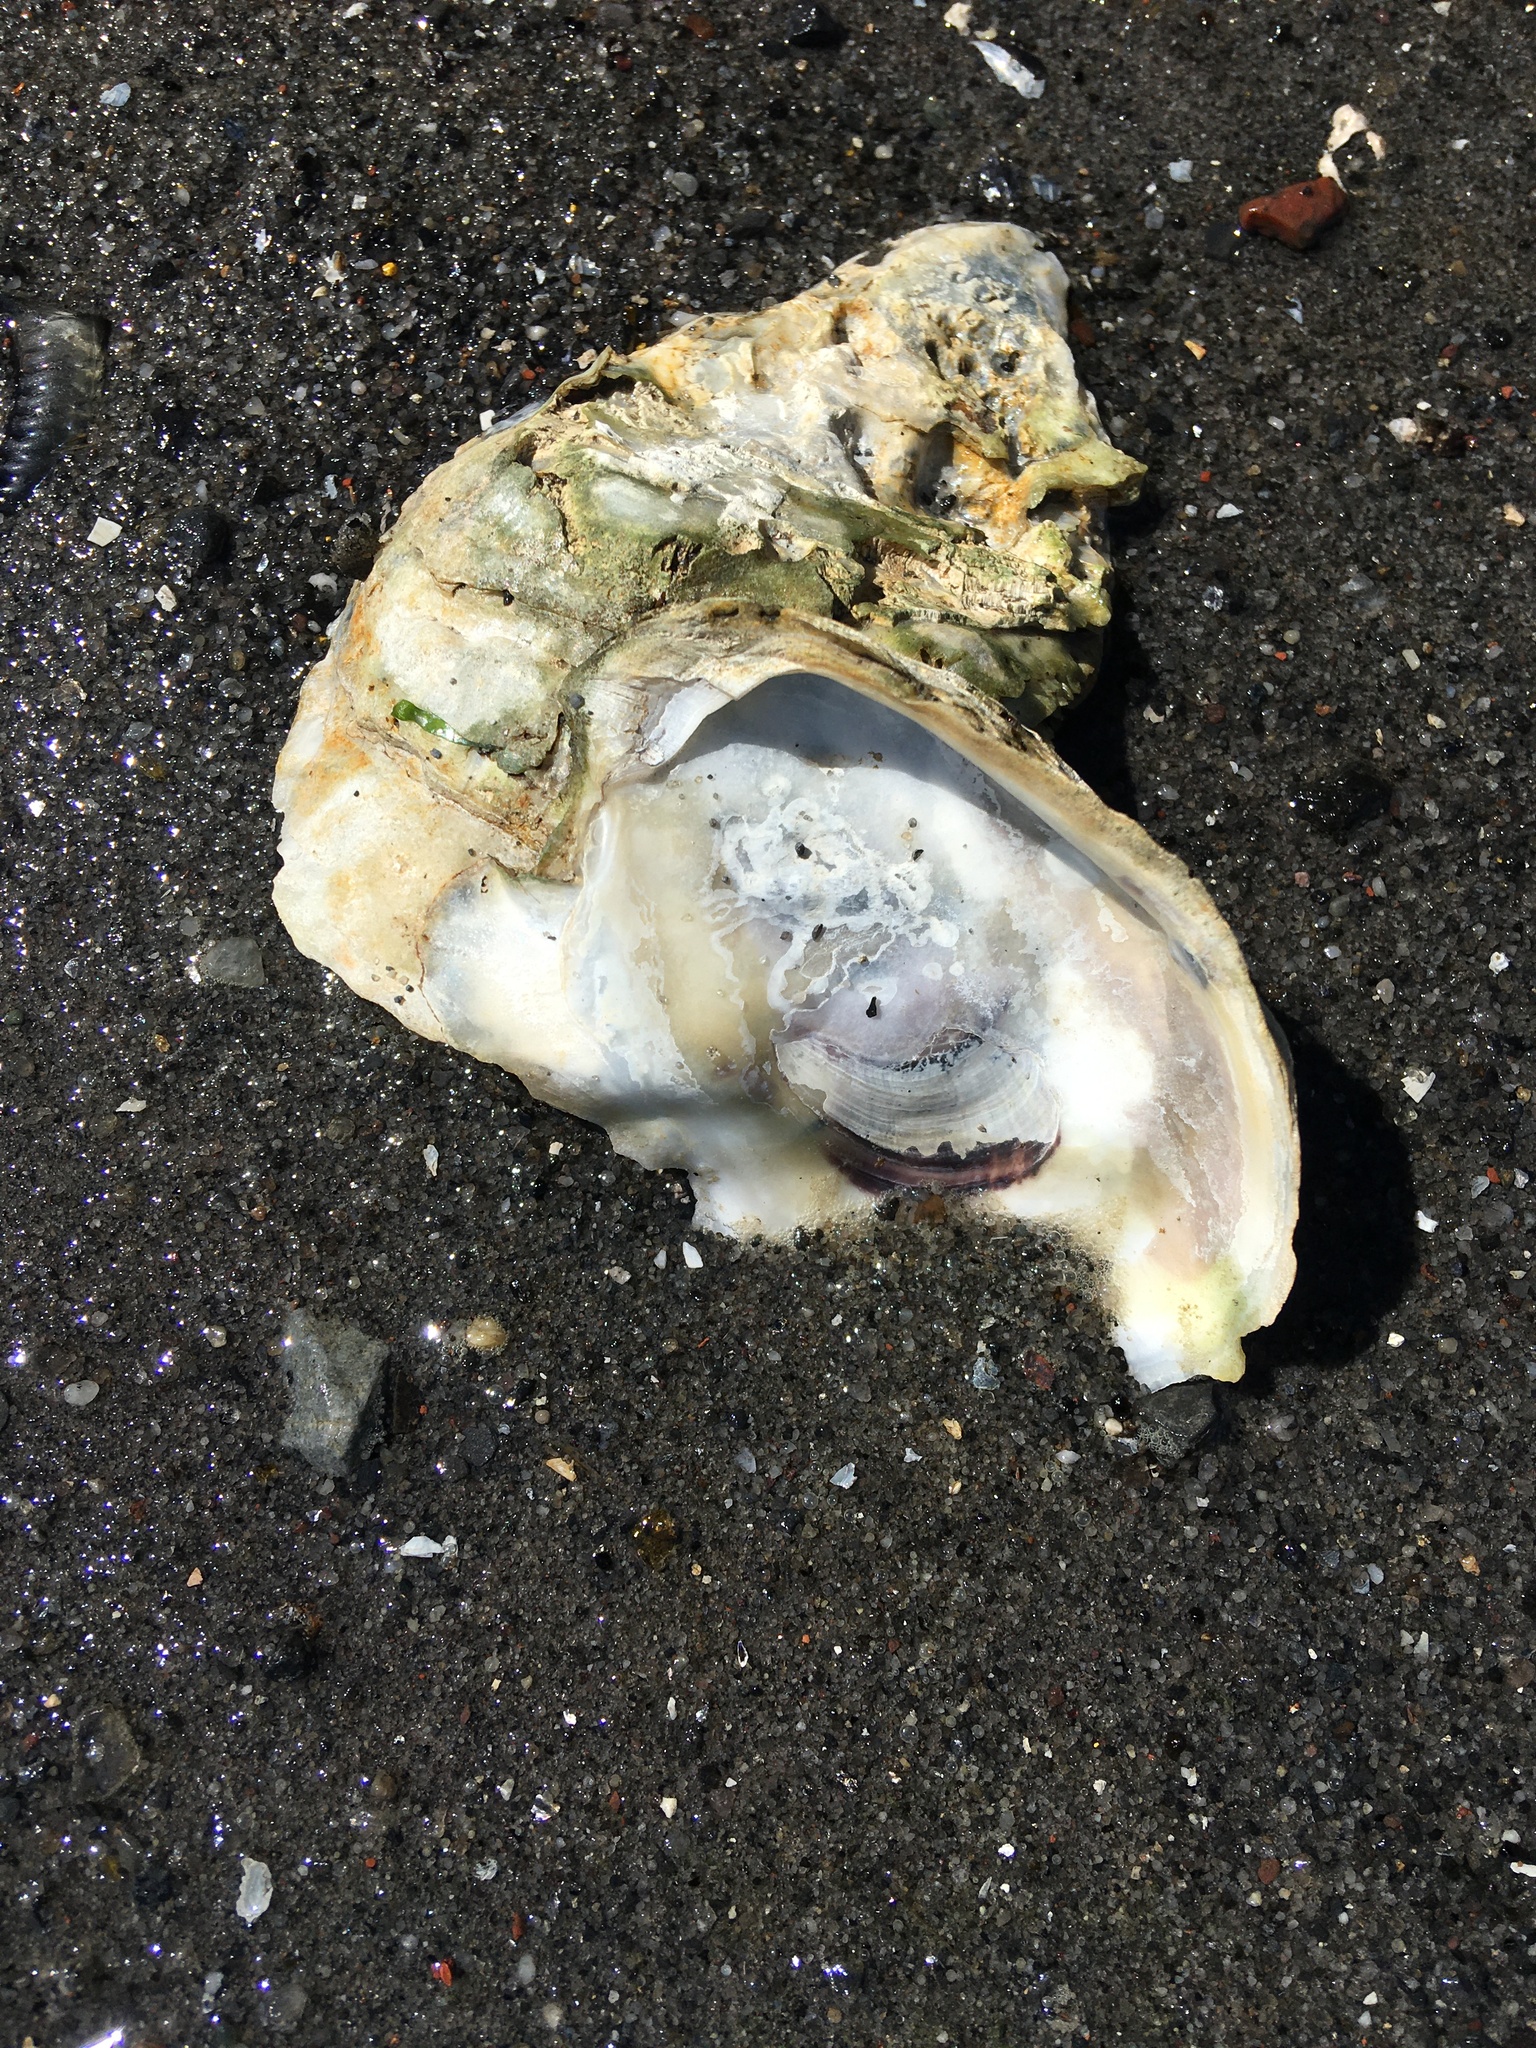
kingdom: Animalia
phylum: Mollusca
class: Bivalvia
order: Ostreida
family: Ostreidae
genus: Crassostrea
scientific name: Crassostrea virginica
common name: American oyster
